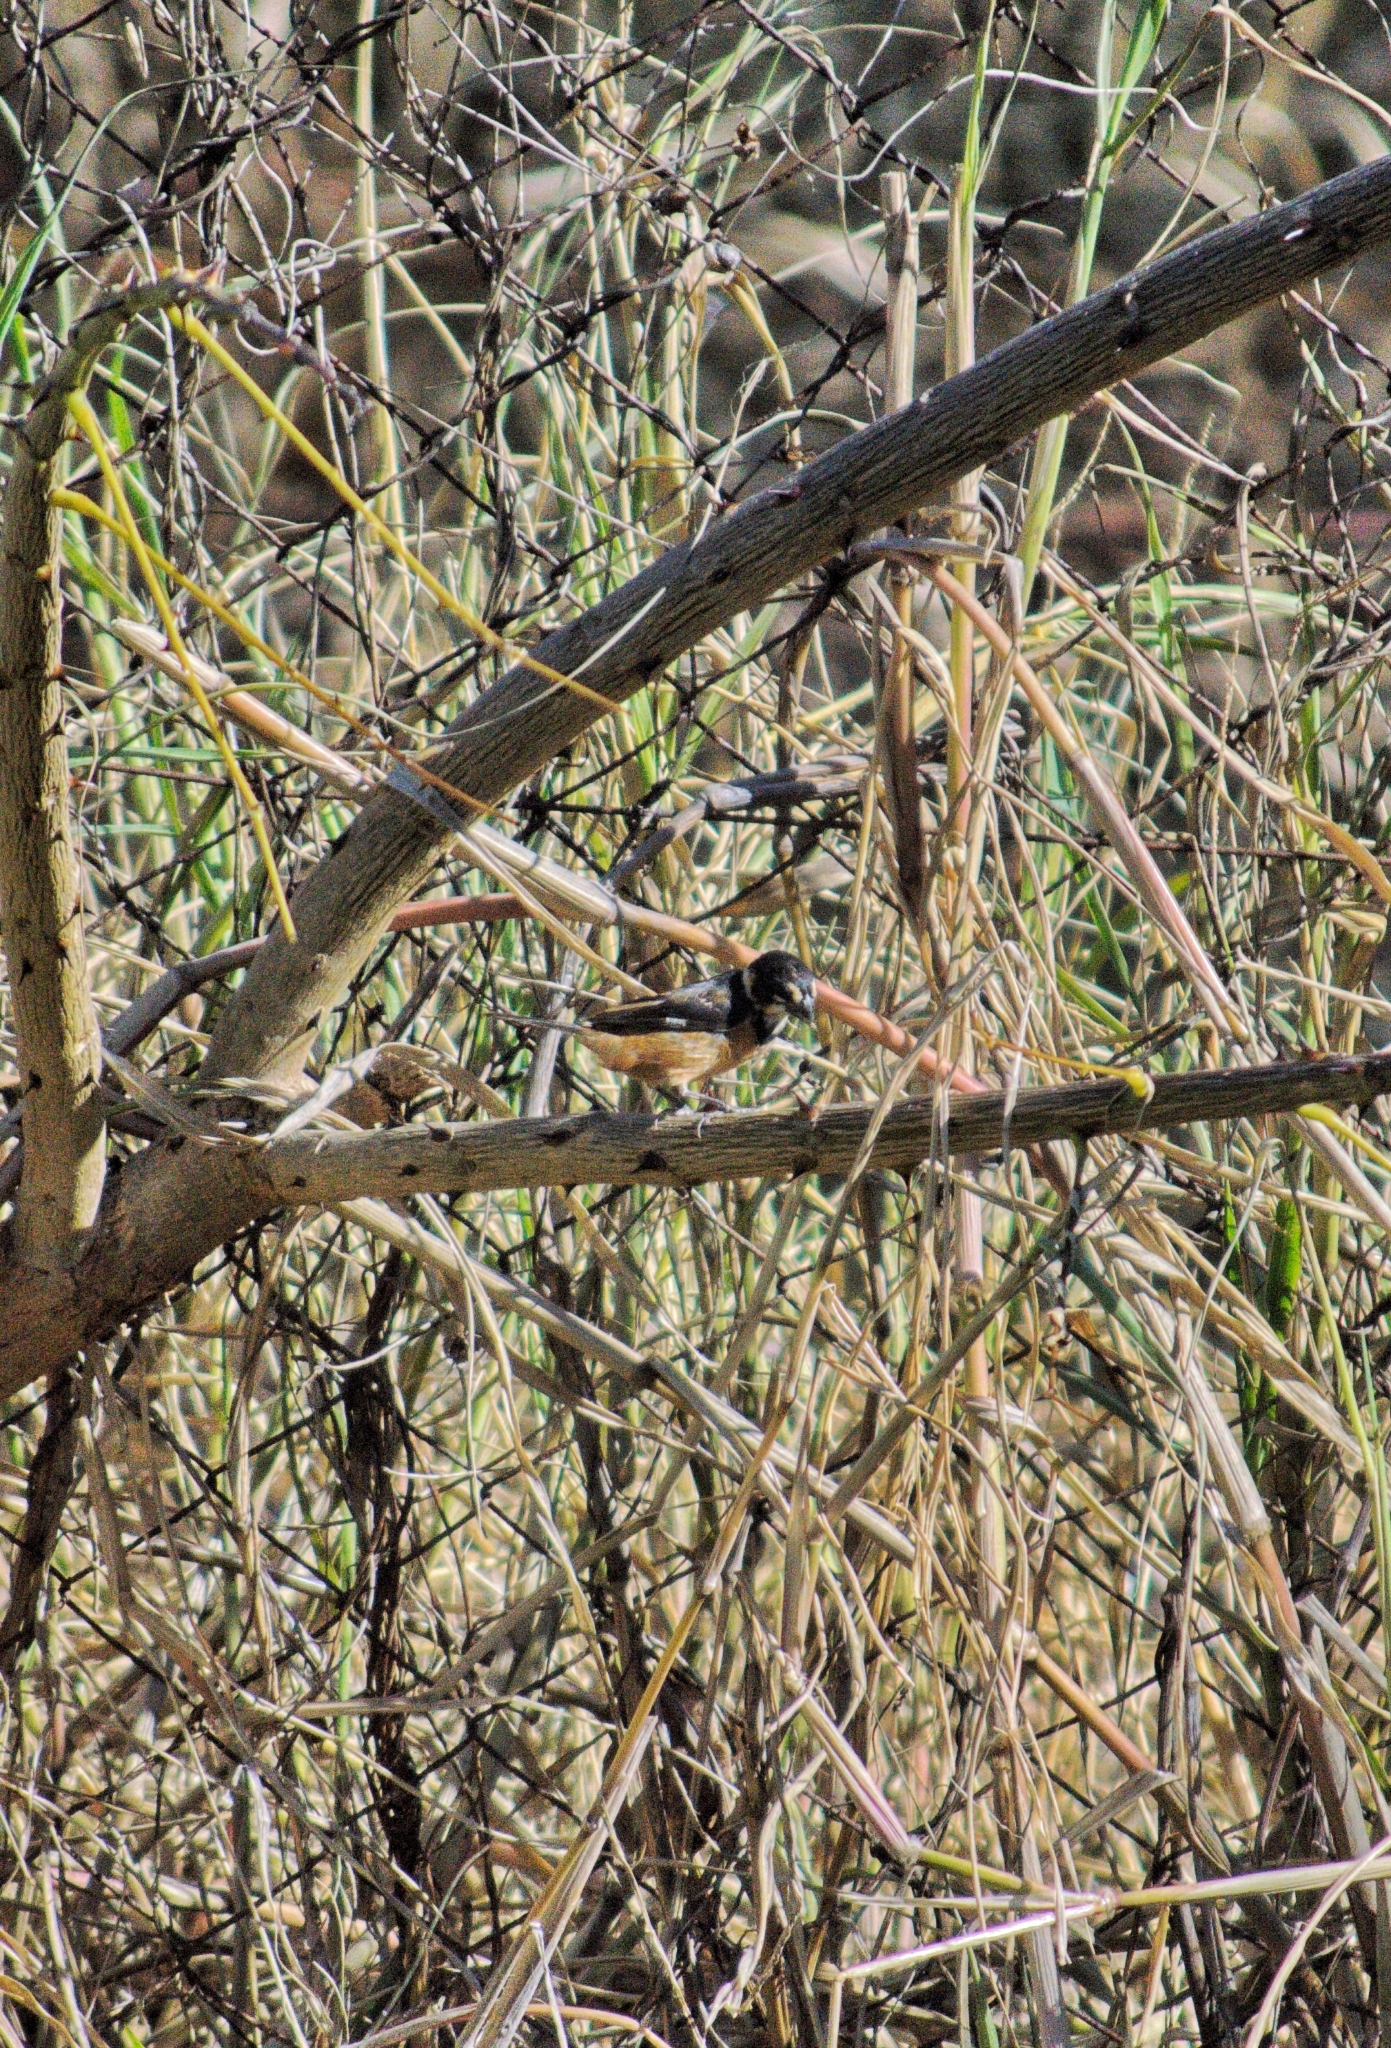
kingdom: Animalia
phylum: Chordata
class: Aves
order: Passeriformes
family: Thraupidae
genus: Sporophila
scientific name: Sporophila collaris
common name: Rusty-collared seedeater
